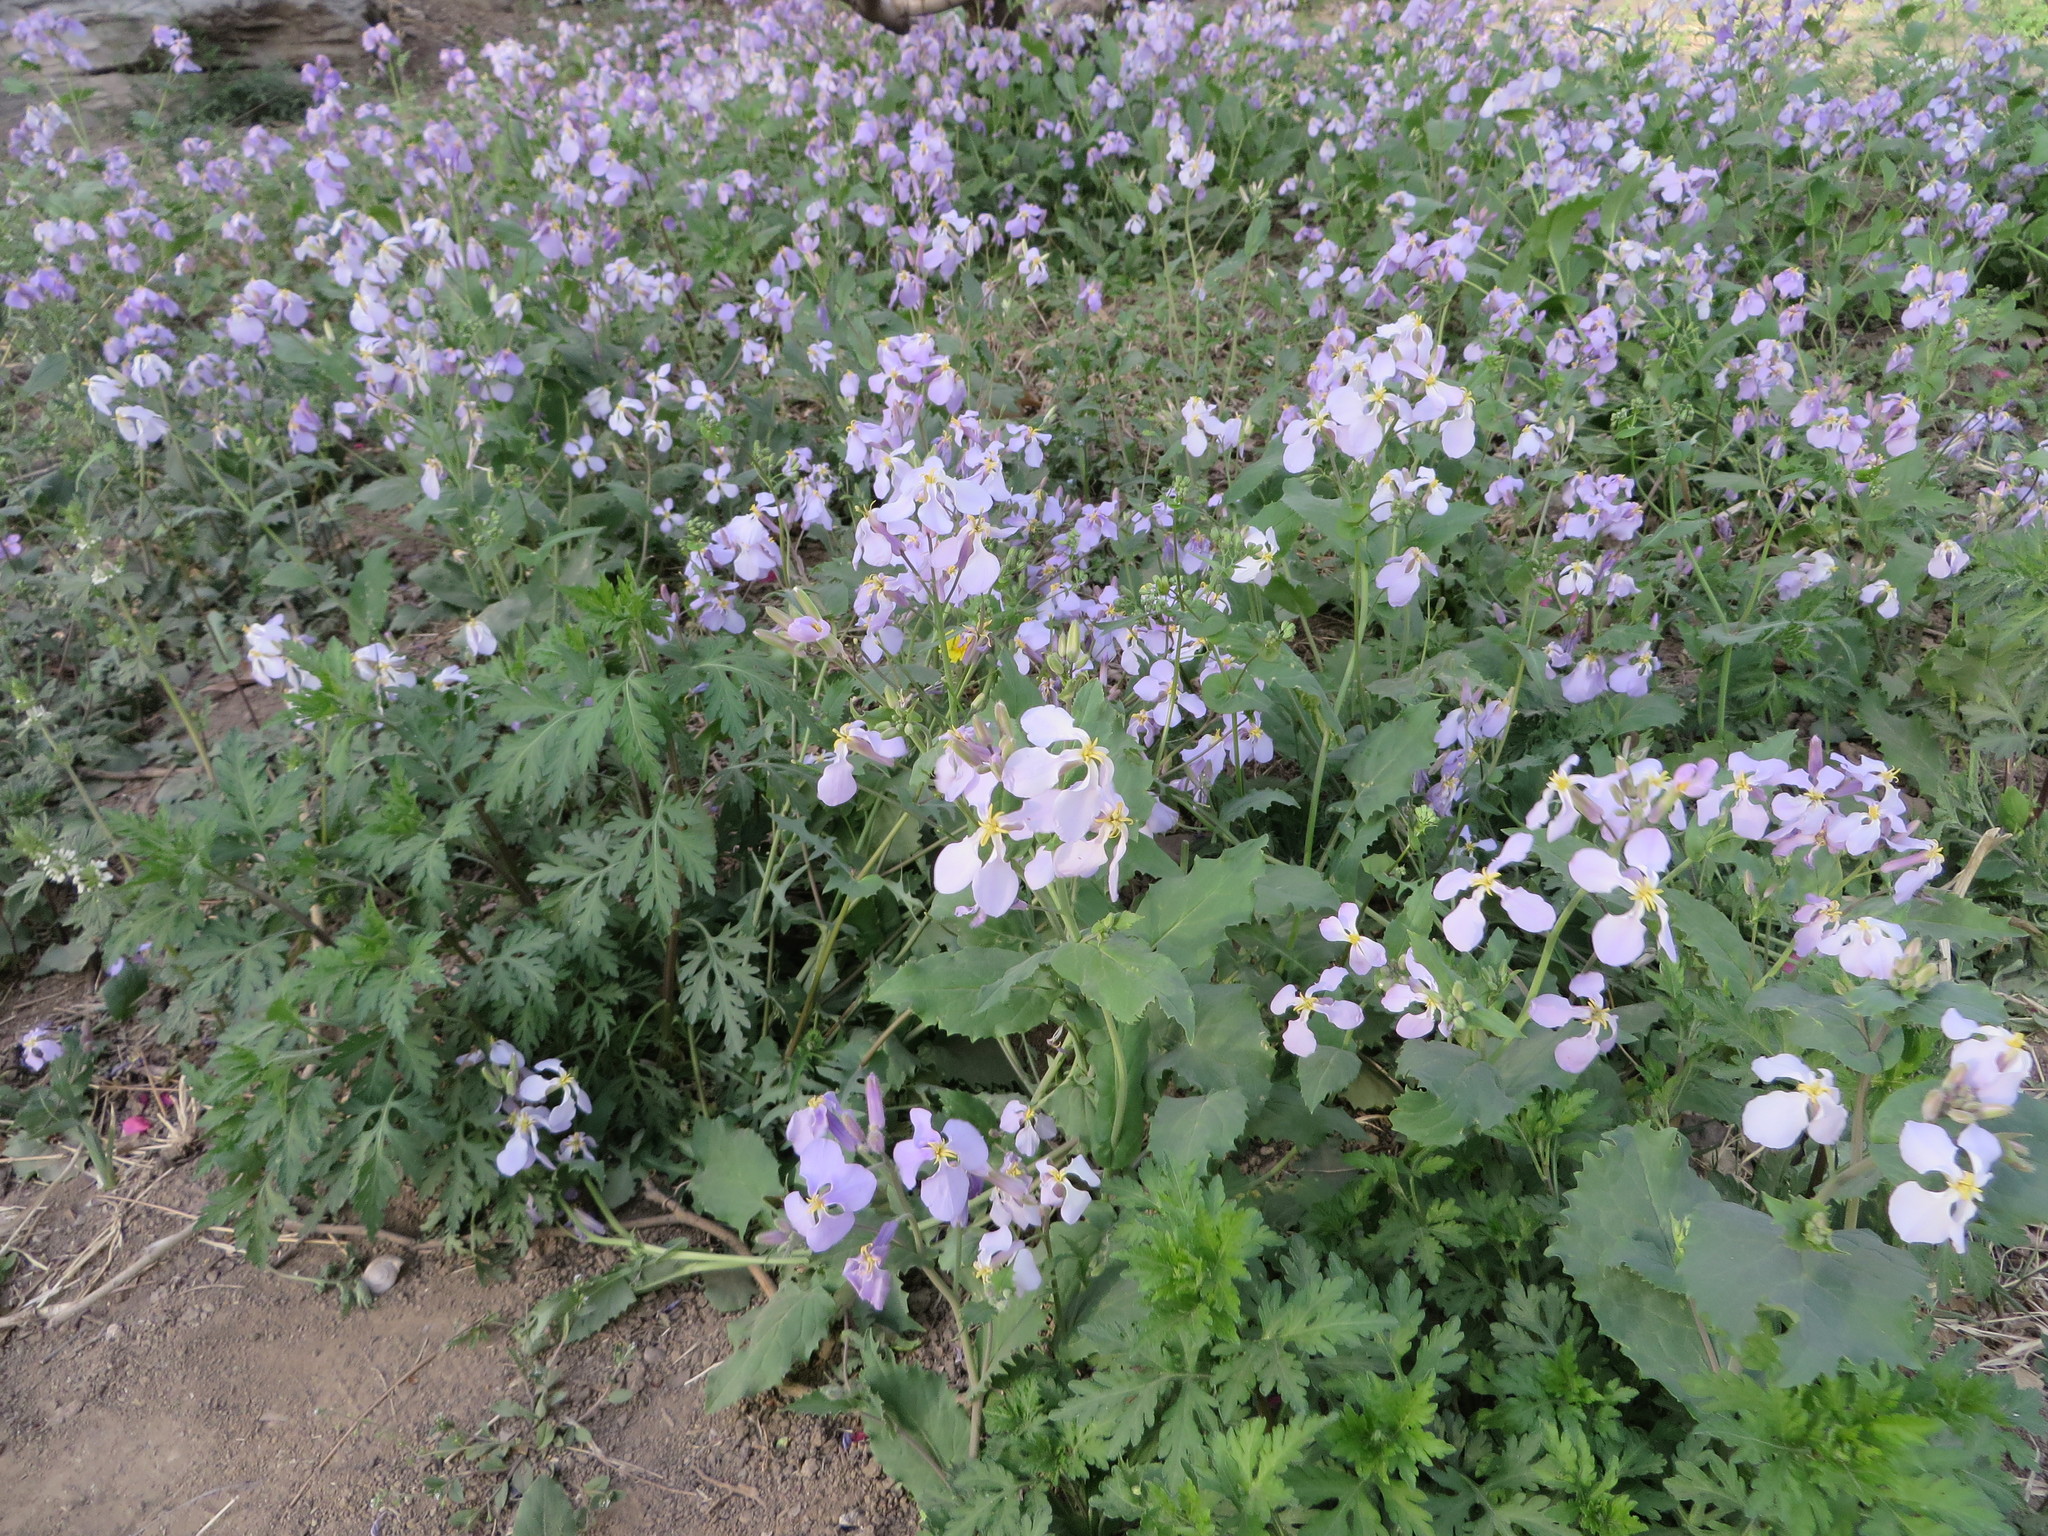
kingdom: Plantae
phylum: Tracheophyta
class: Magnoliopsida
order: Brassicales
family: Brassicaceae
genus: Orychophragmus
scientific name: Orychophragmus violaceus
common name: Mustard
